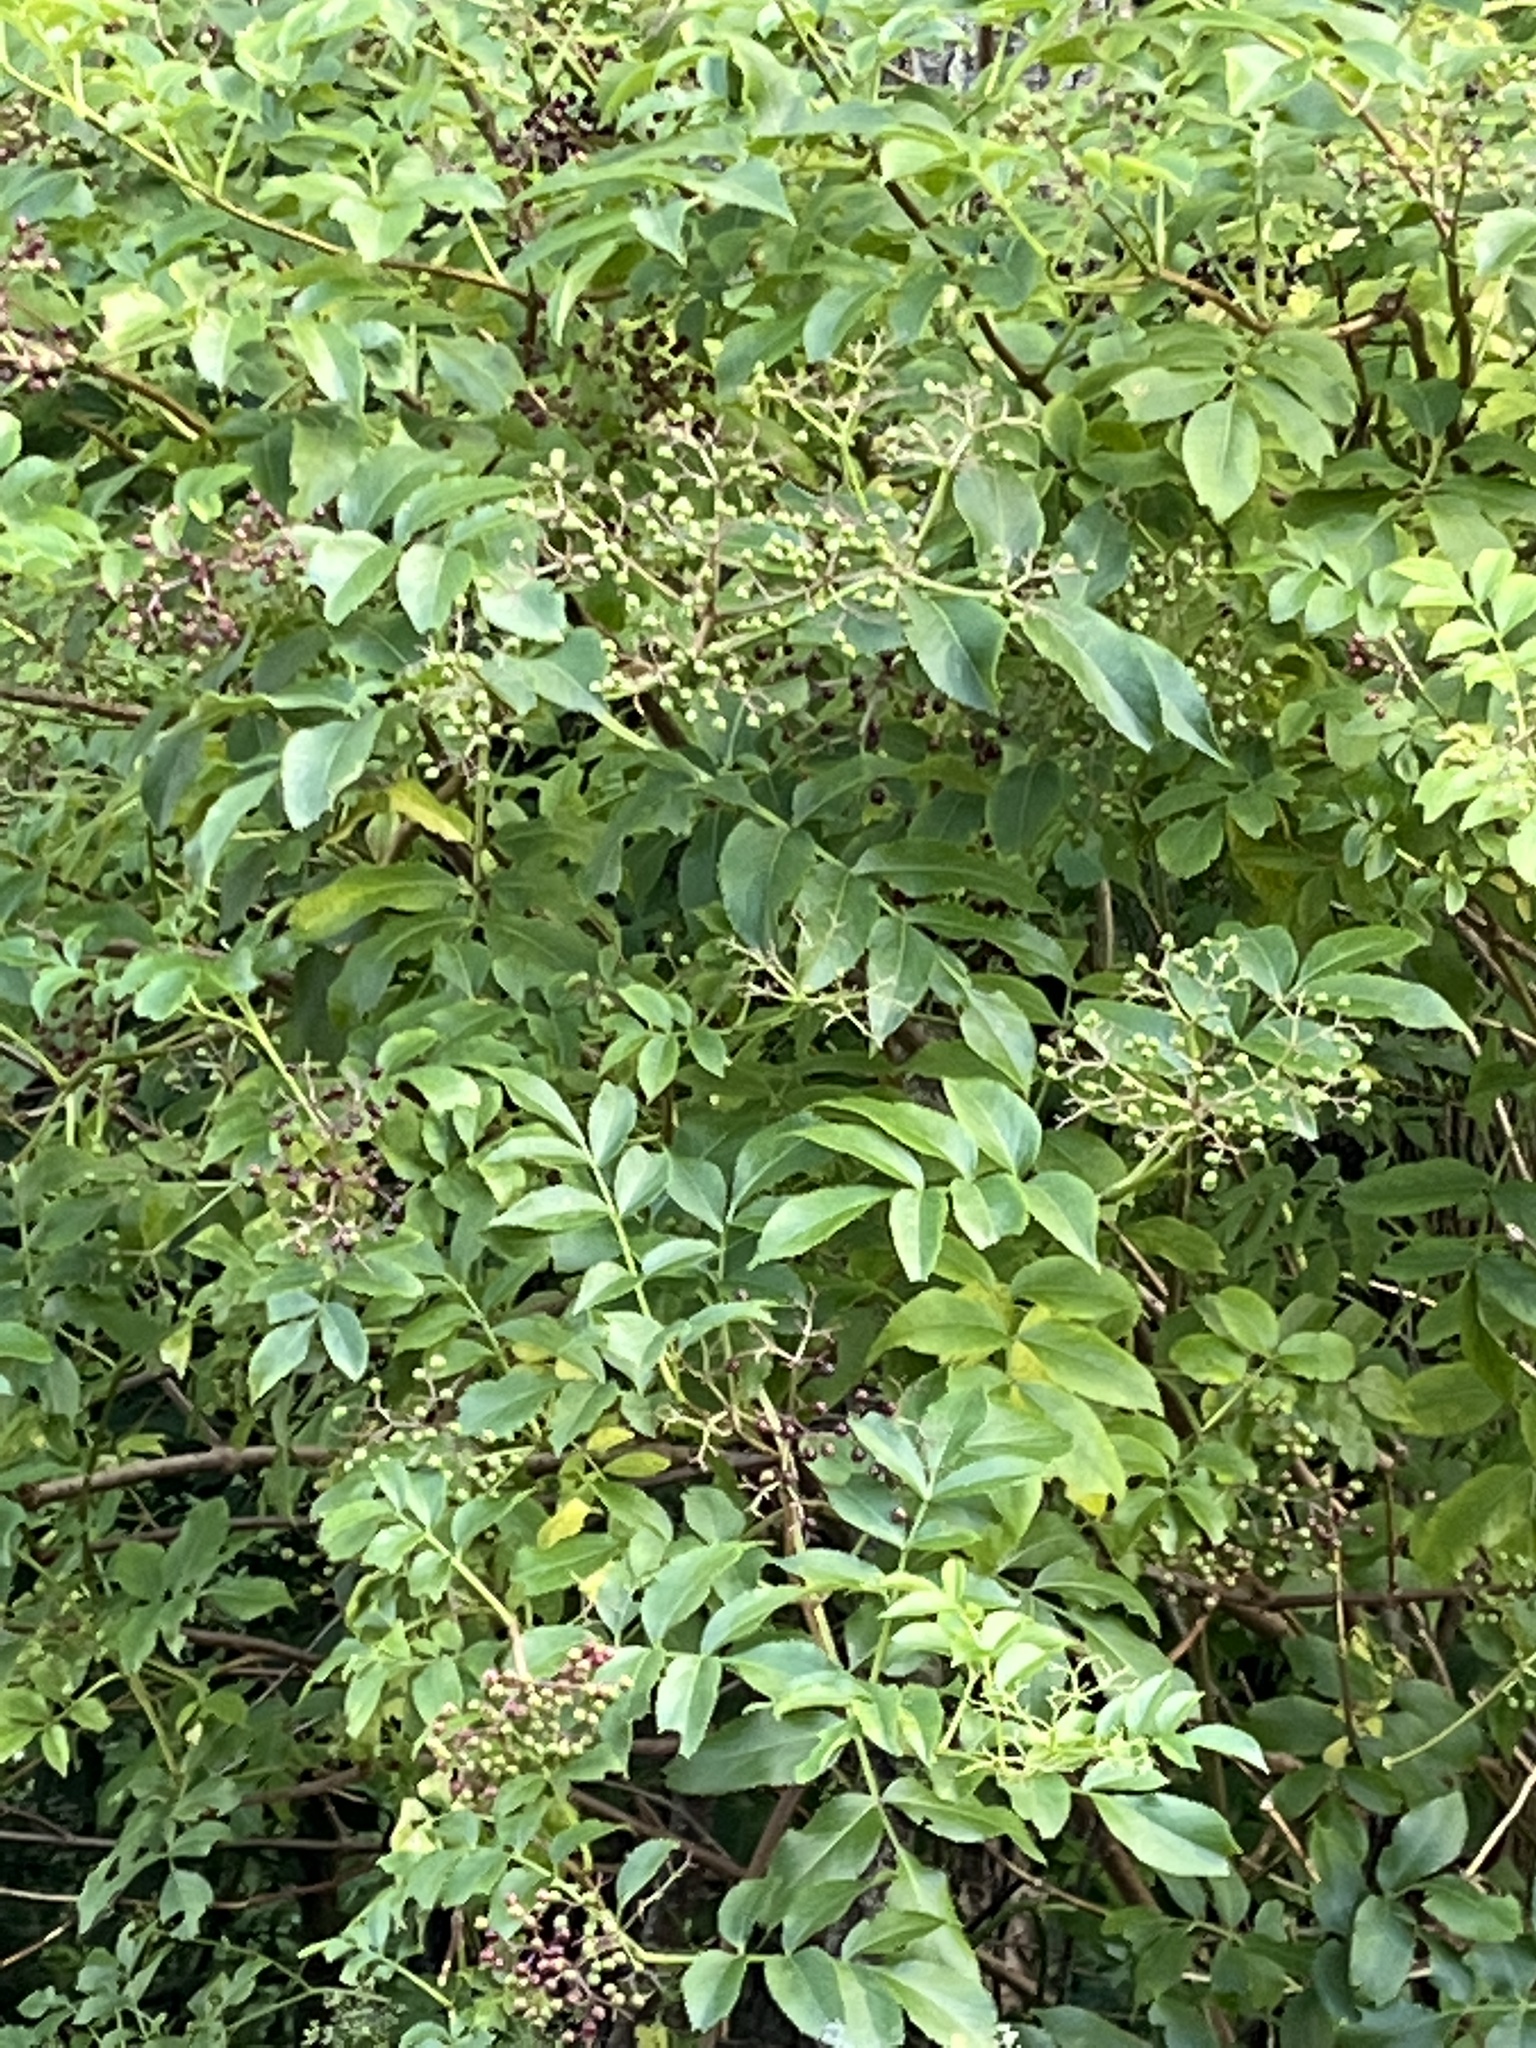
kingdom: Plantae
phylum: Tracheophyta
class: Magnoliopsida
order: Dipsacales
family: Viburnaceae
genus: Sambucus
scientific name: Sambucus canadensis
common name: American elder
